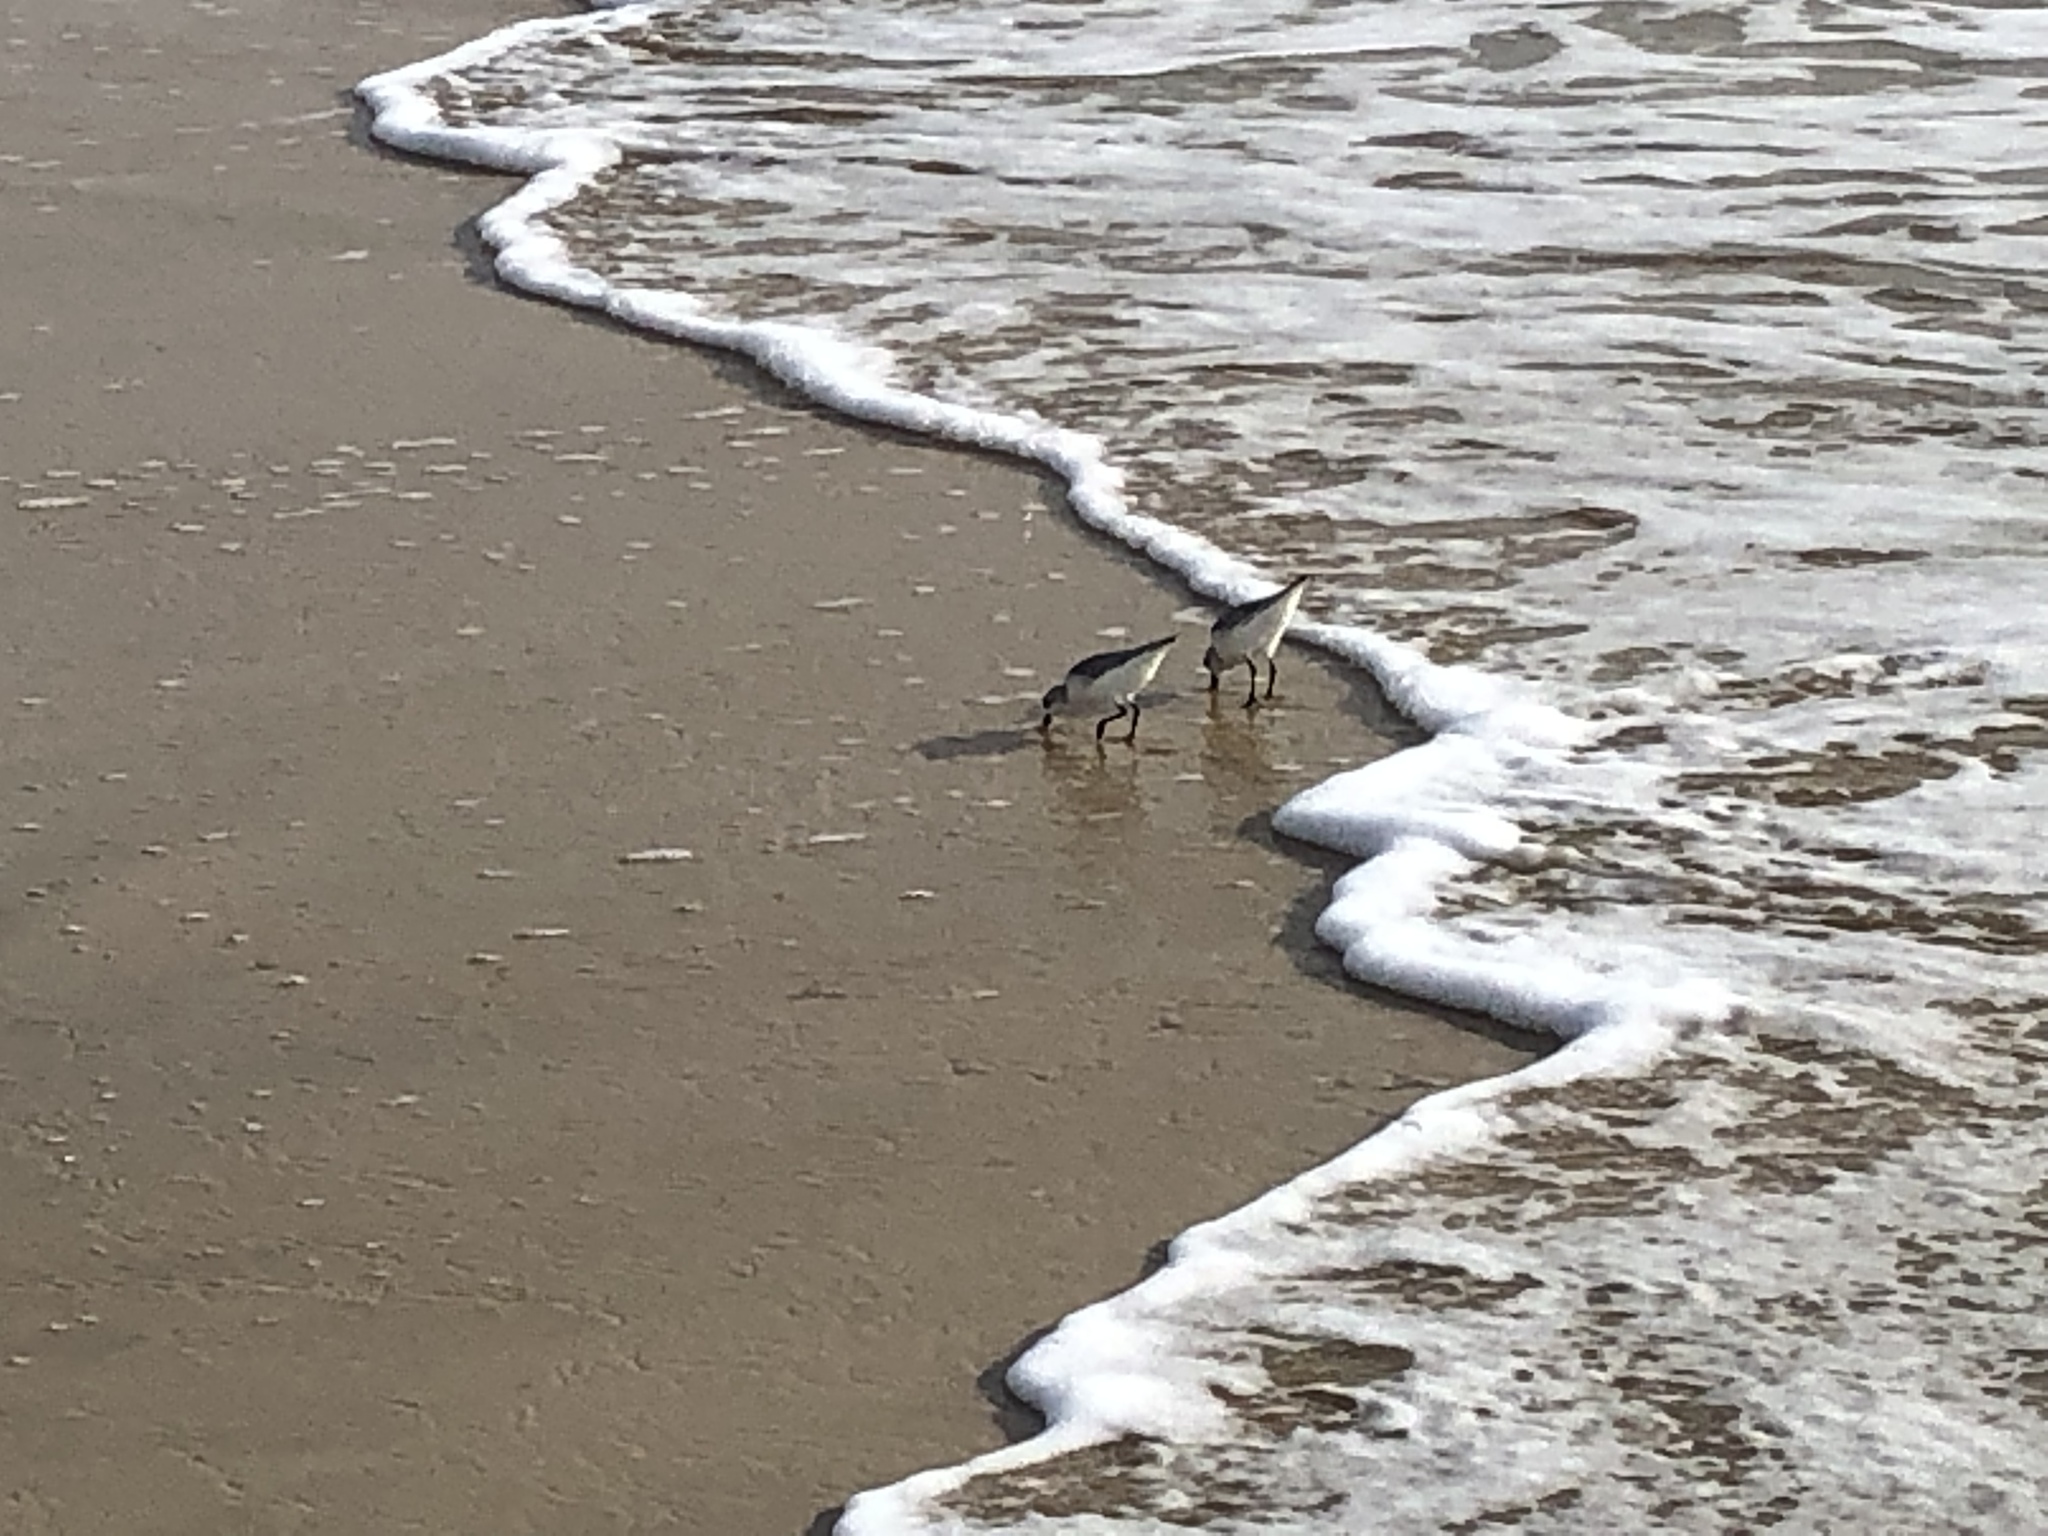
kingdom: Animalia
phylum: Chordata
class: Aves
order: Charadriiformes
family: Scolopacidae
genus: Calidris
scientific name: Calidris alba
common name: Sanderling
